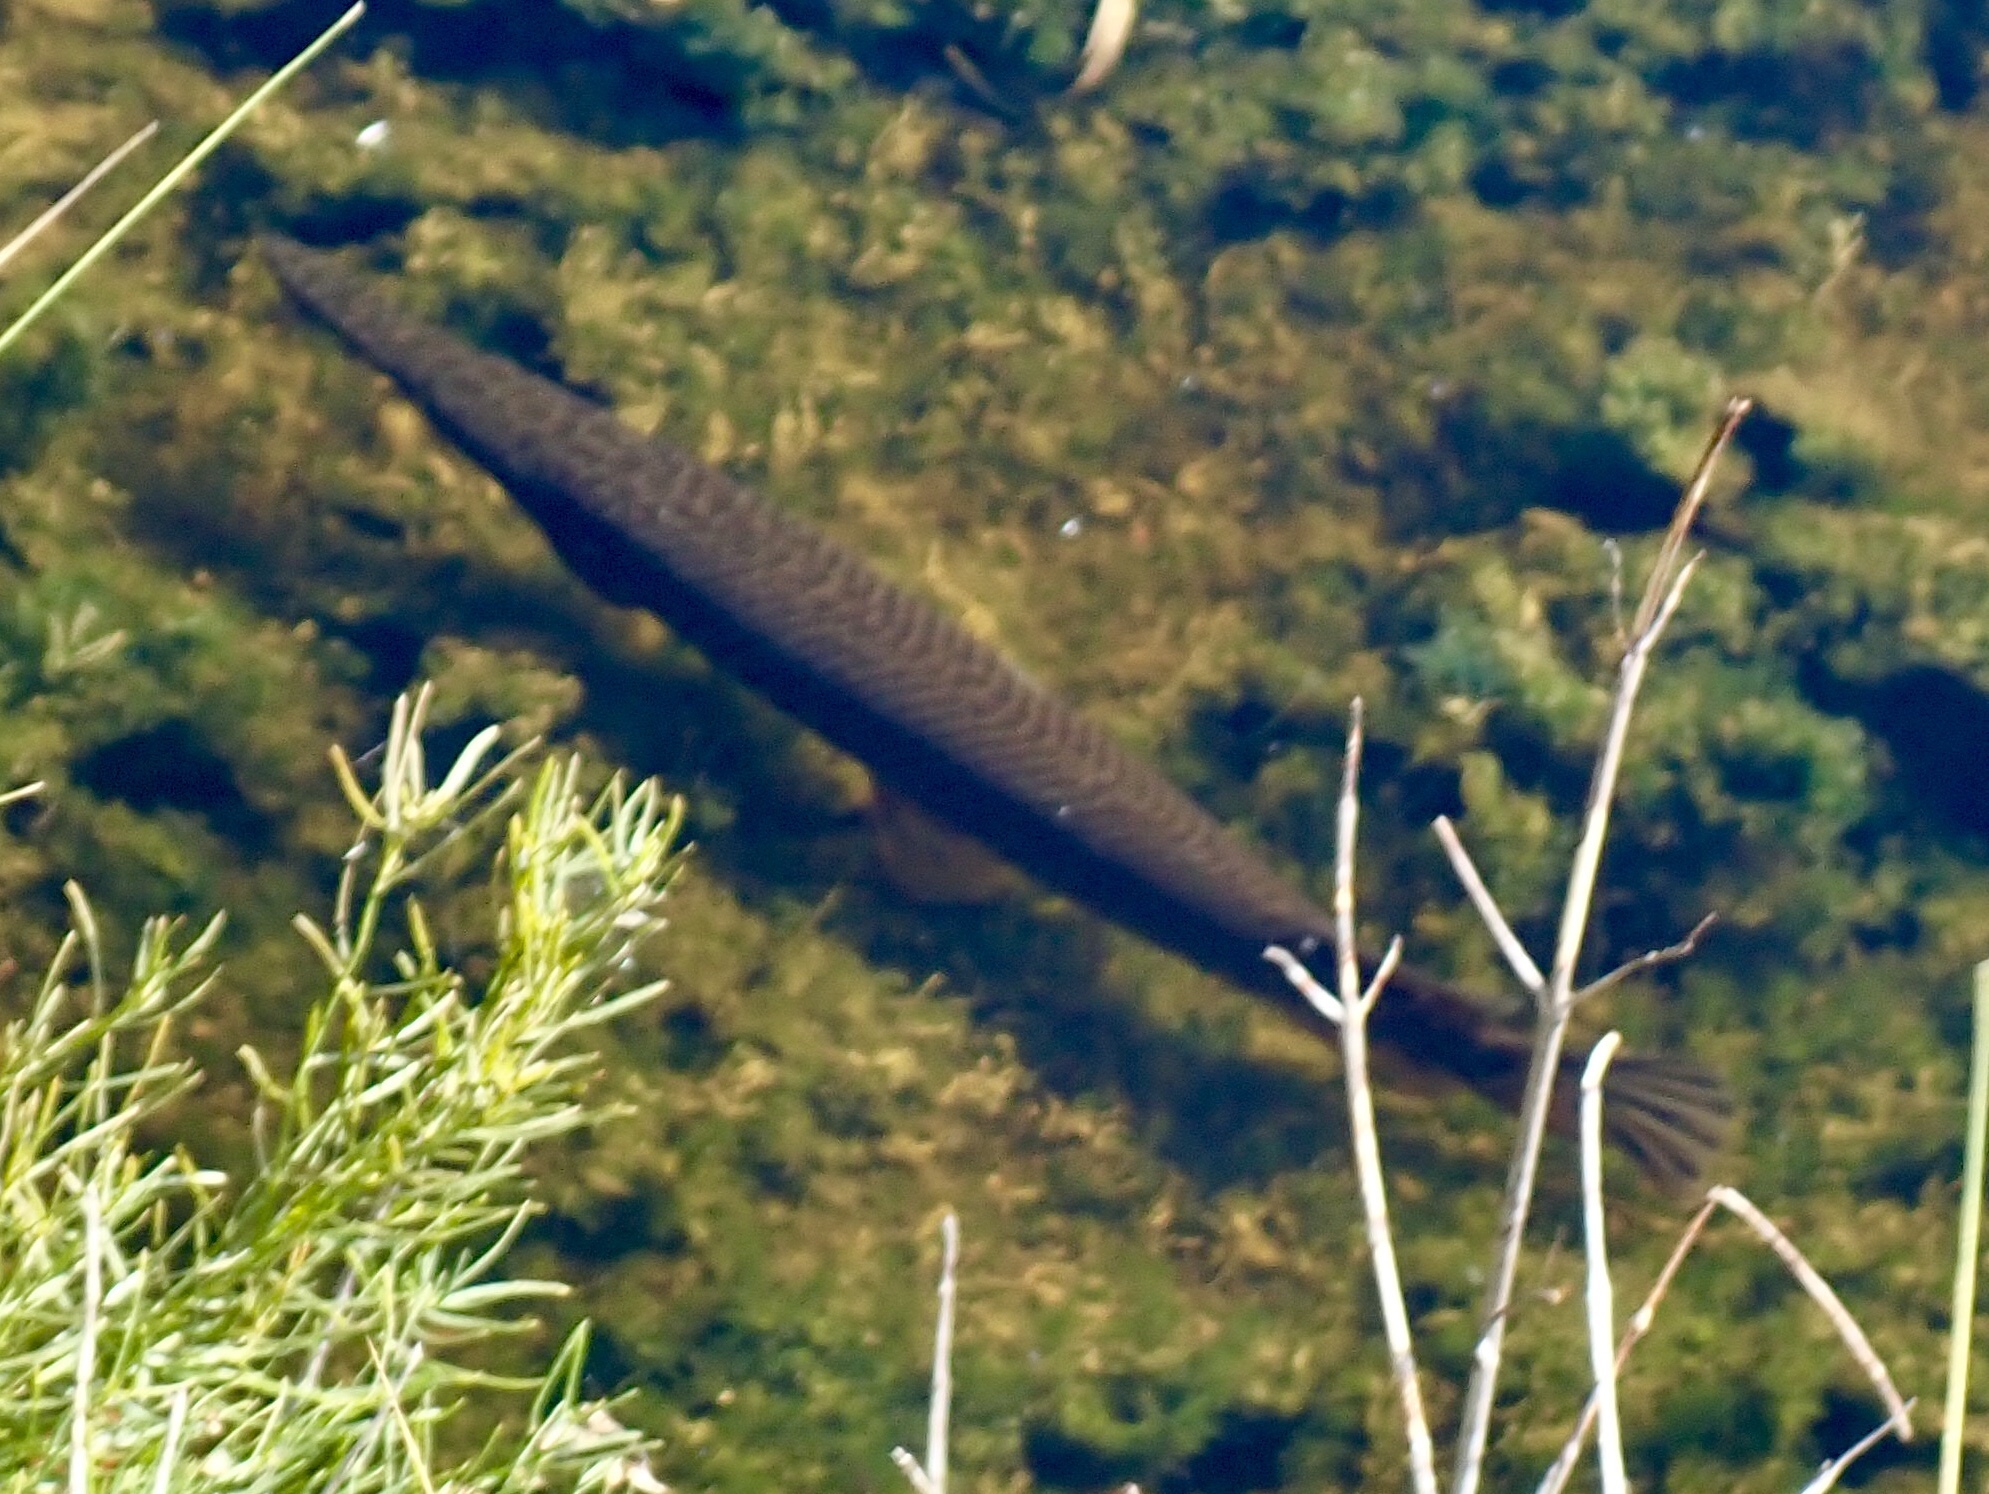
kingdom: Animalia
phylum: Chordata
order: Lepisosteiformes
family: Lepisosteidae
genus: Lepisosteus
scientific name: Lepisosteus platyrhincus
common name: Florida gar
